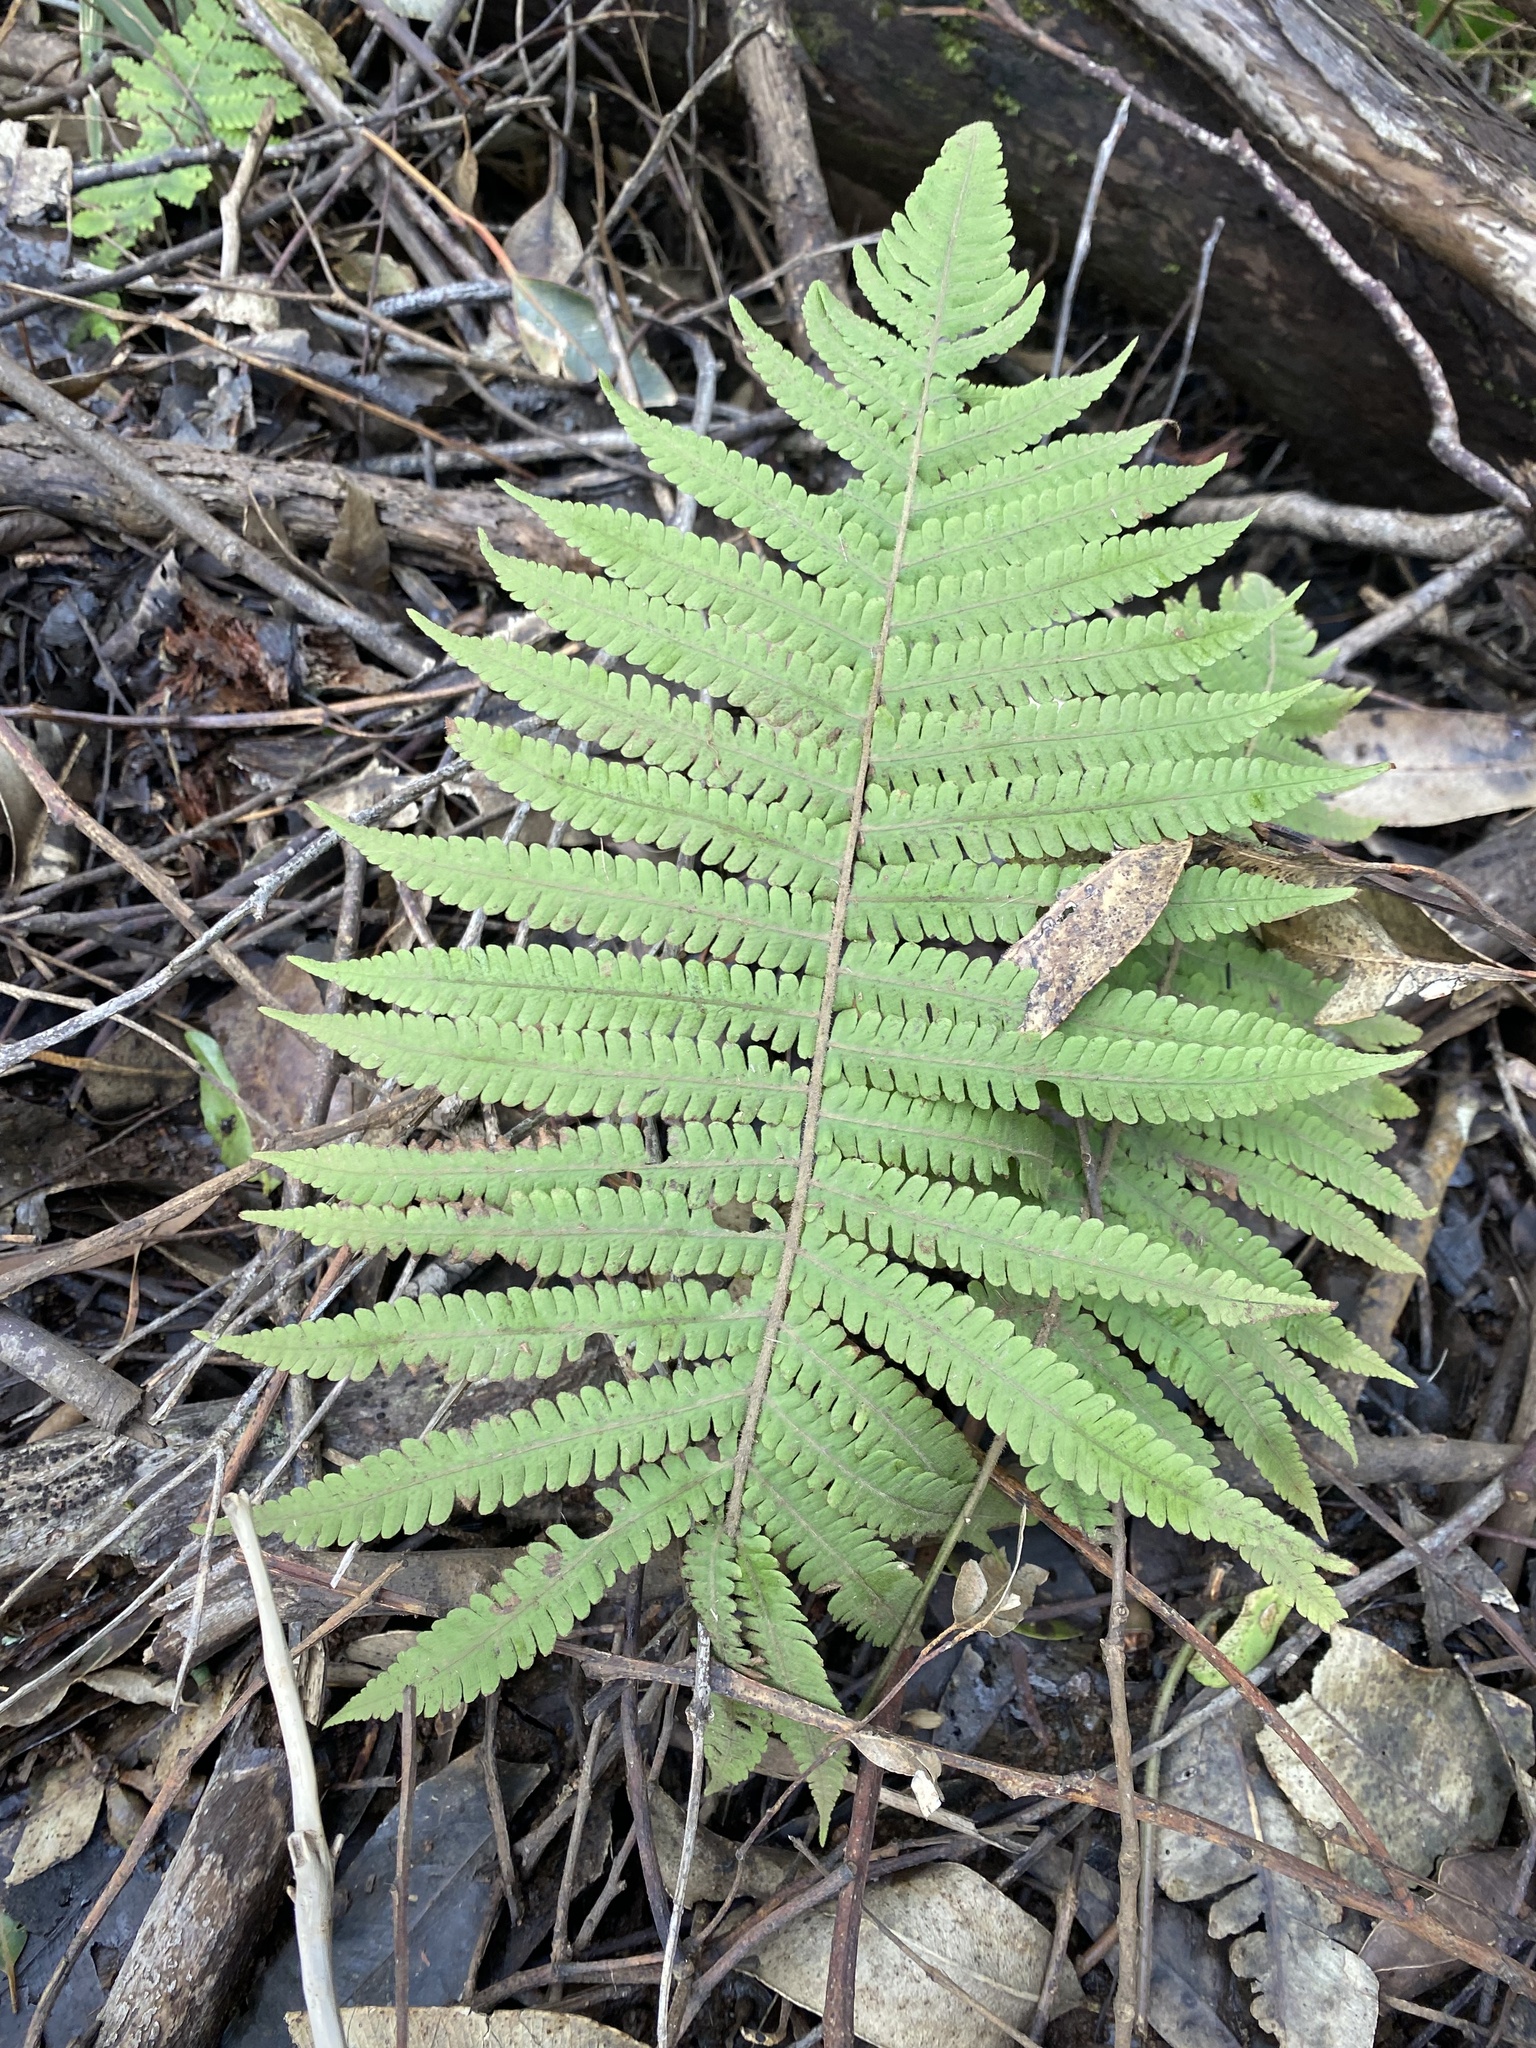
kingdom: Plantae
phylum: Tracheophyta
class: Polypodiopsida
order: Polypodiales
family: Thelypteridaceae
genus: Christella
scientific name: Christella parasitica
